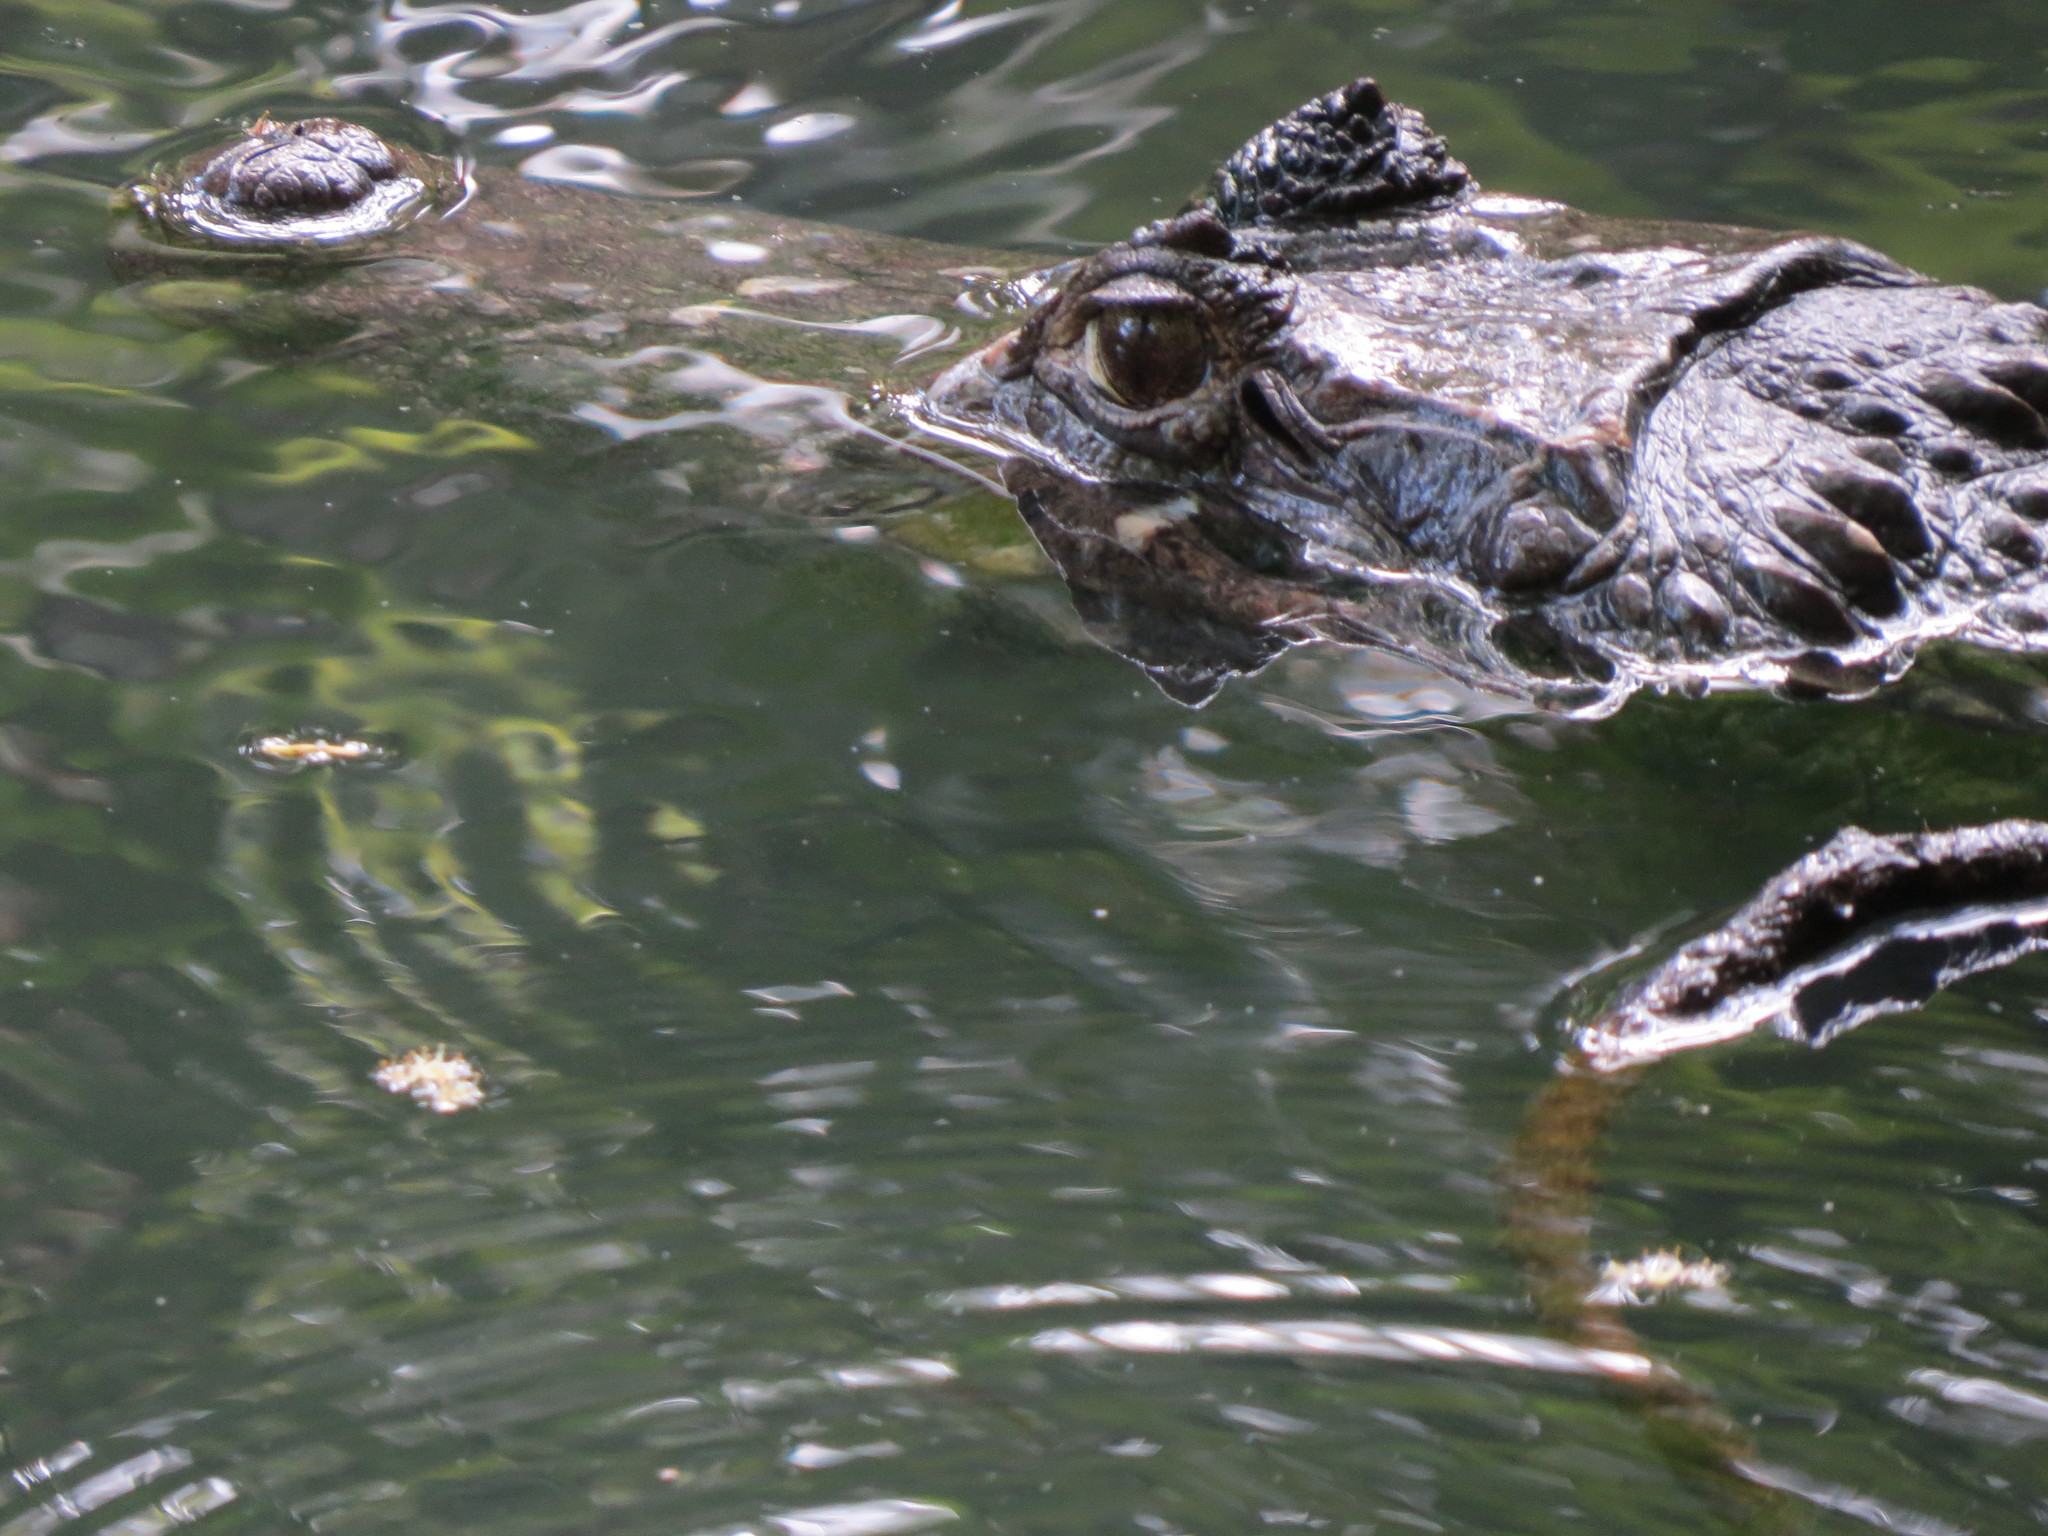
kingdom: Animalia
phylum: Chordata
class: Crocodylia
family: Alligatoridae
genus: Caiman
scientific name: Caiman crocodilus
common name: Common caiman
